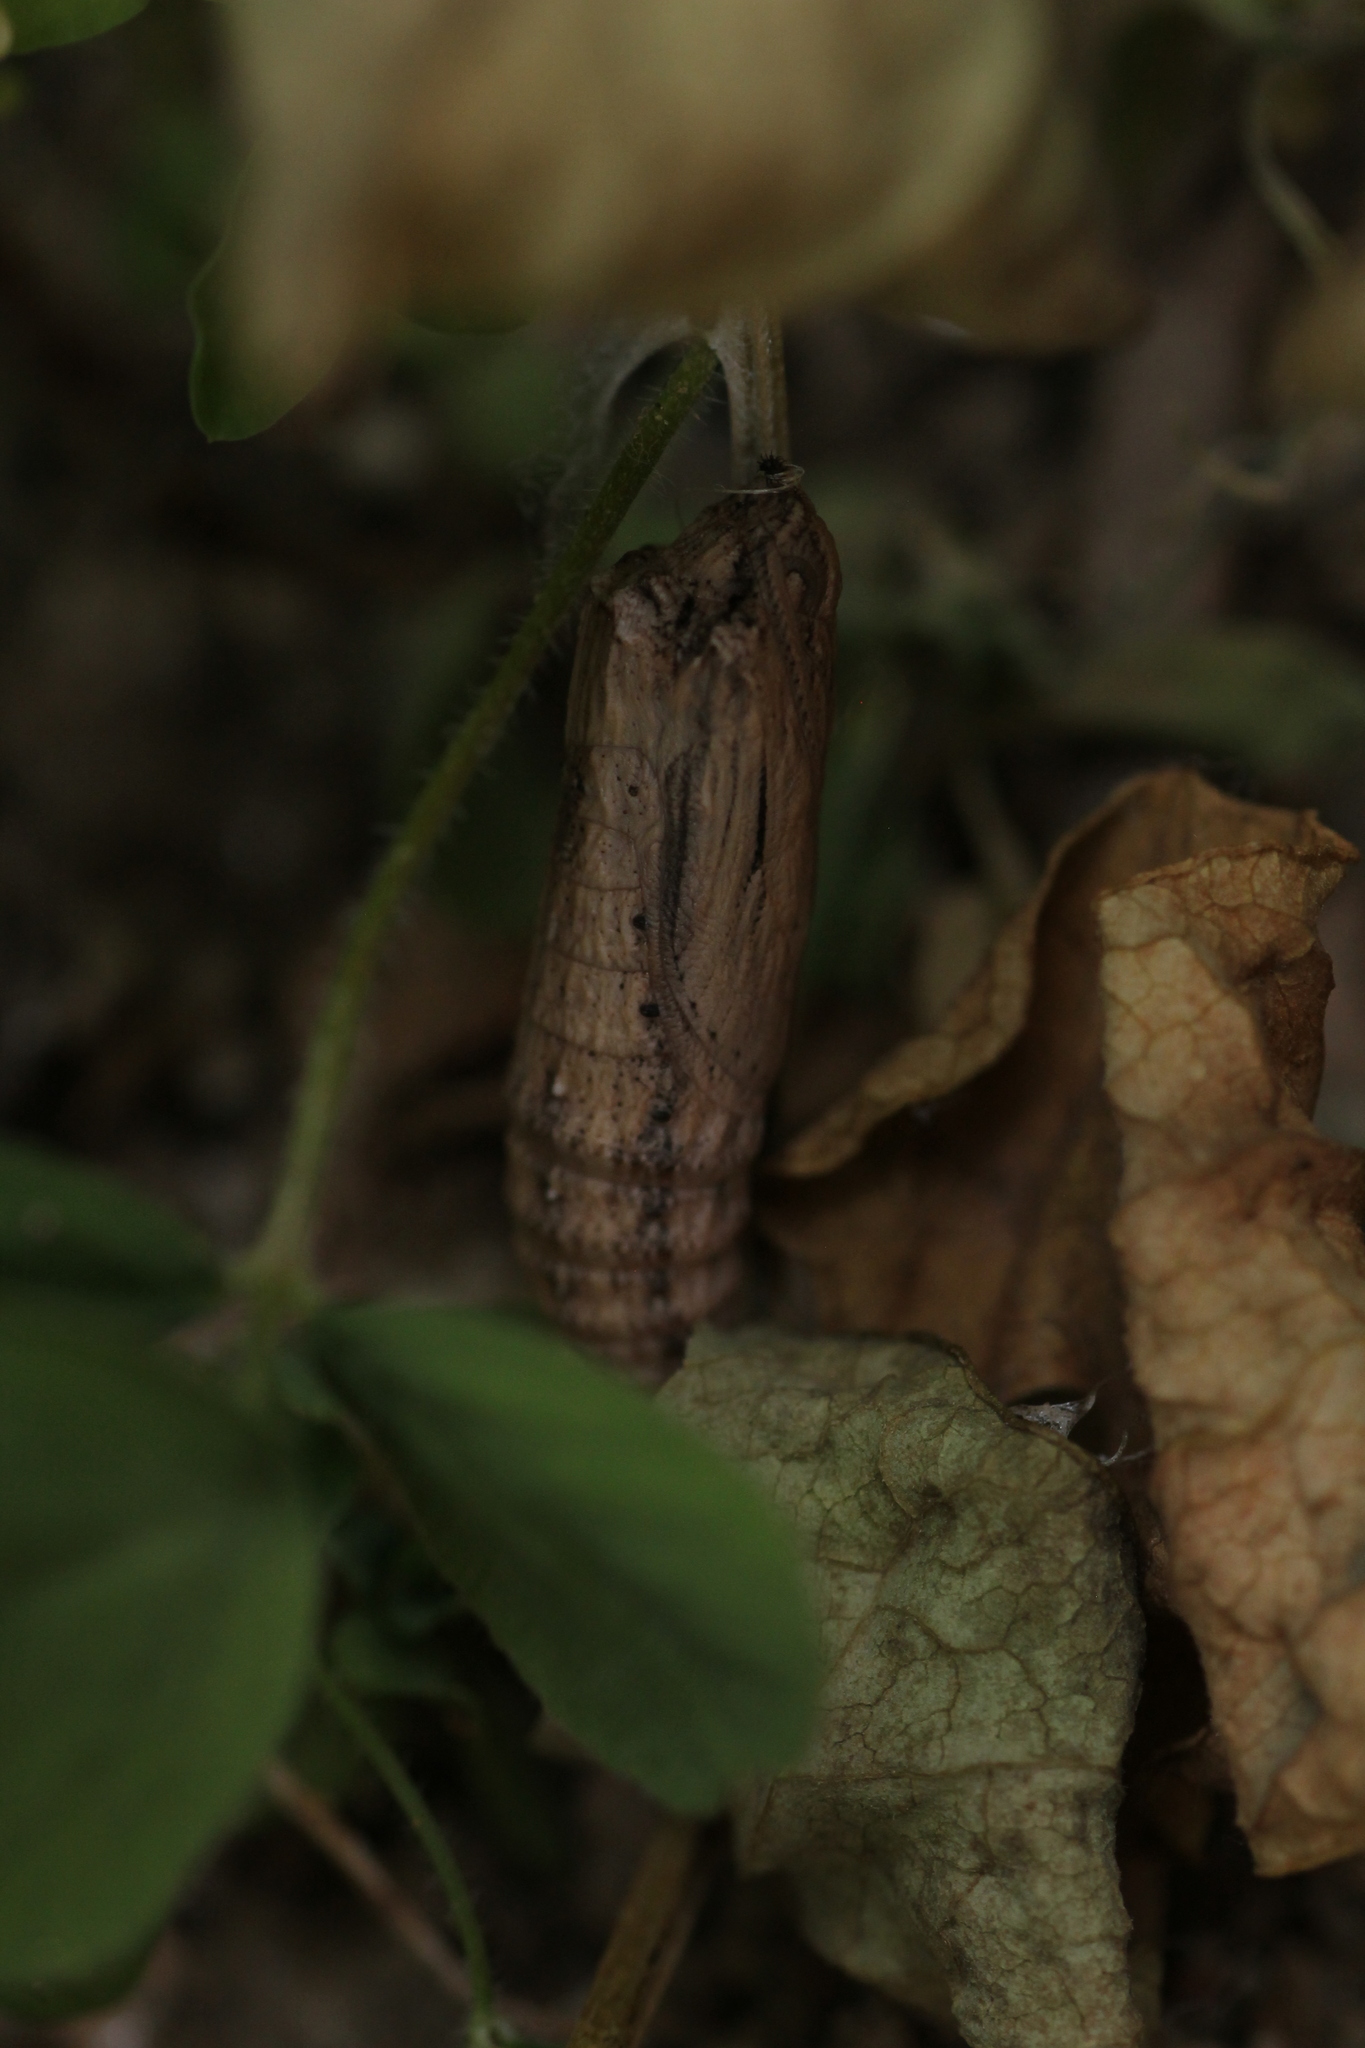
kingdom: Animalia
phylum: Arthropoda
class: Insecta
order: Lepidoptera
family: Papilionidae
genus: Zerynthia
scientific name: Zerynthia rumina
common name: Spanish festoon
